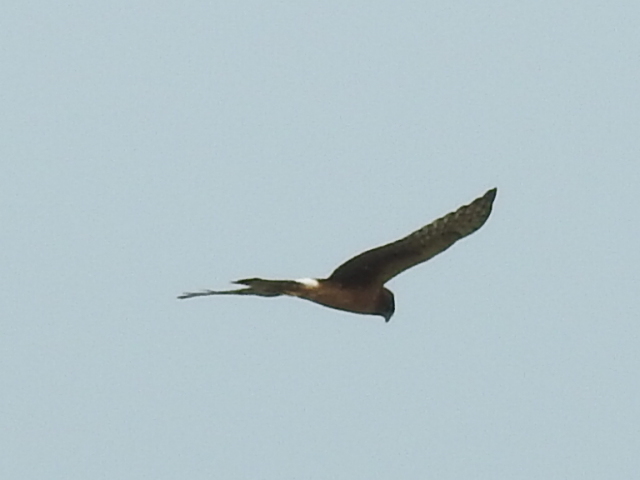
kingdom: Animalia
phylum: Chordata
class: Aves
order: Accipitriformes
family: Accipitridae
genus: Circus
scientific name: Circus cyaneus
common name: Hen harrier
